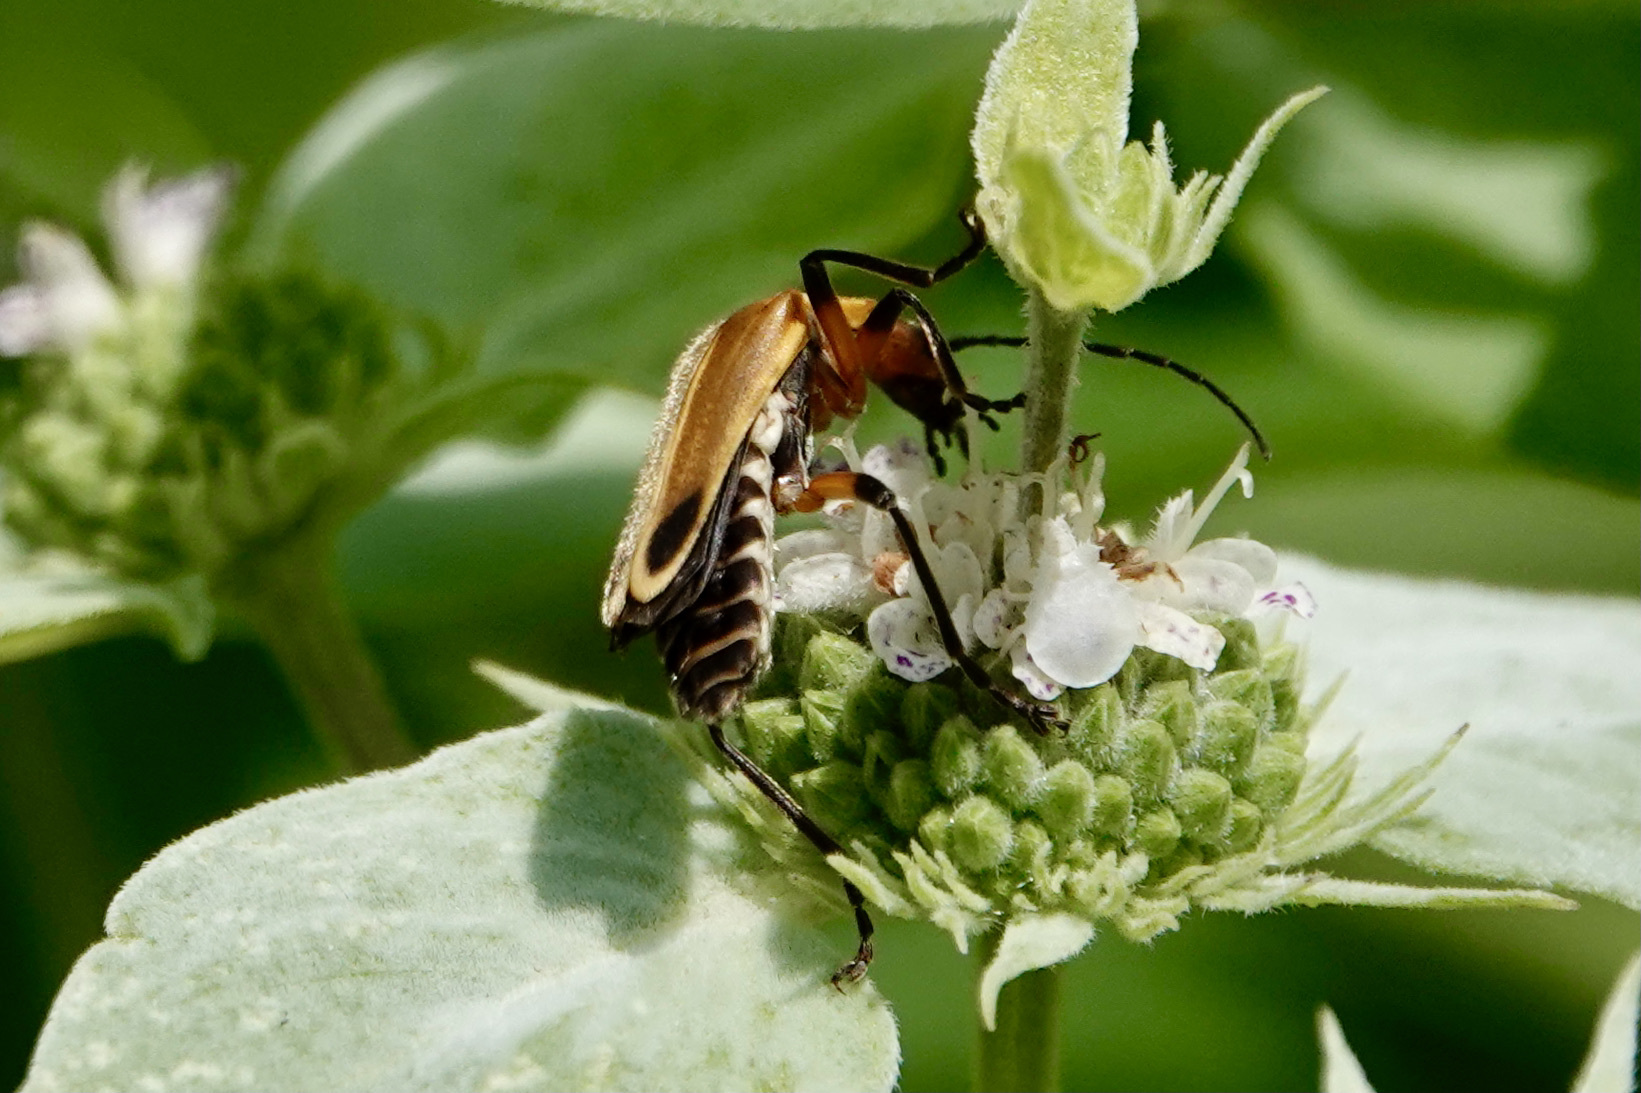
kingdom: Animalia
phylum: Arthropoda
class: Insecta
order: Coleoptera
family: Cantharidae
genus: Chauliognathus
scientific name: Chauliognathus marginatus
